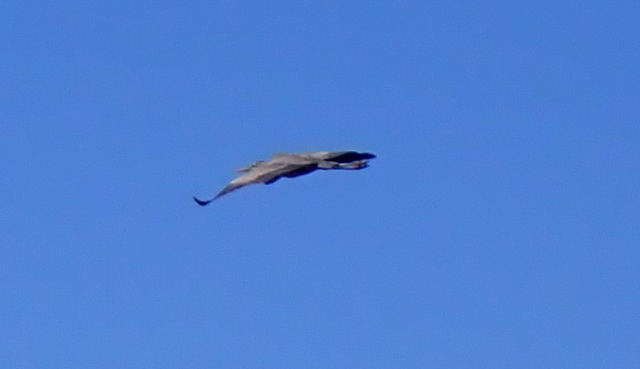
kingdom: Animalia
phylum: Chordata
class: Aves
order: Pelecaniformes
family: Ardeidae
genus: Ardea
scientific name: Ardea herodias
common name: Great blue heron
